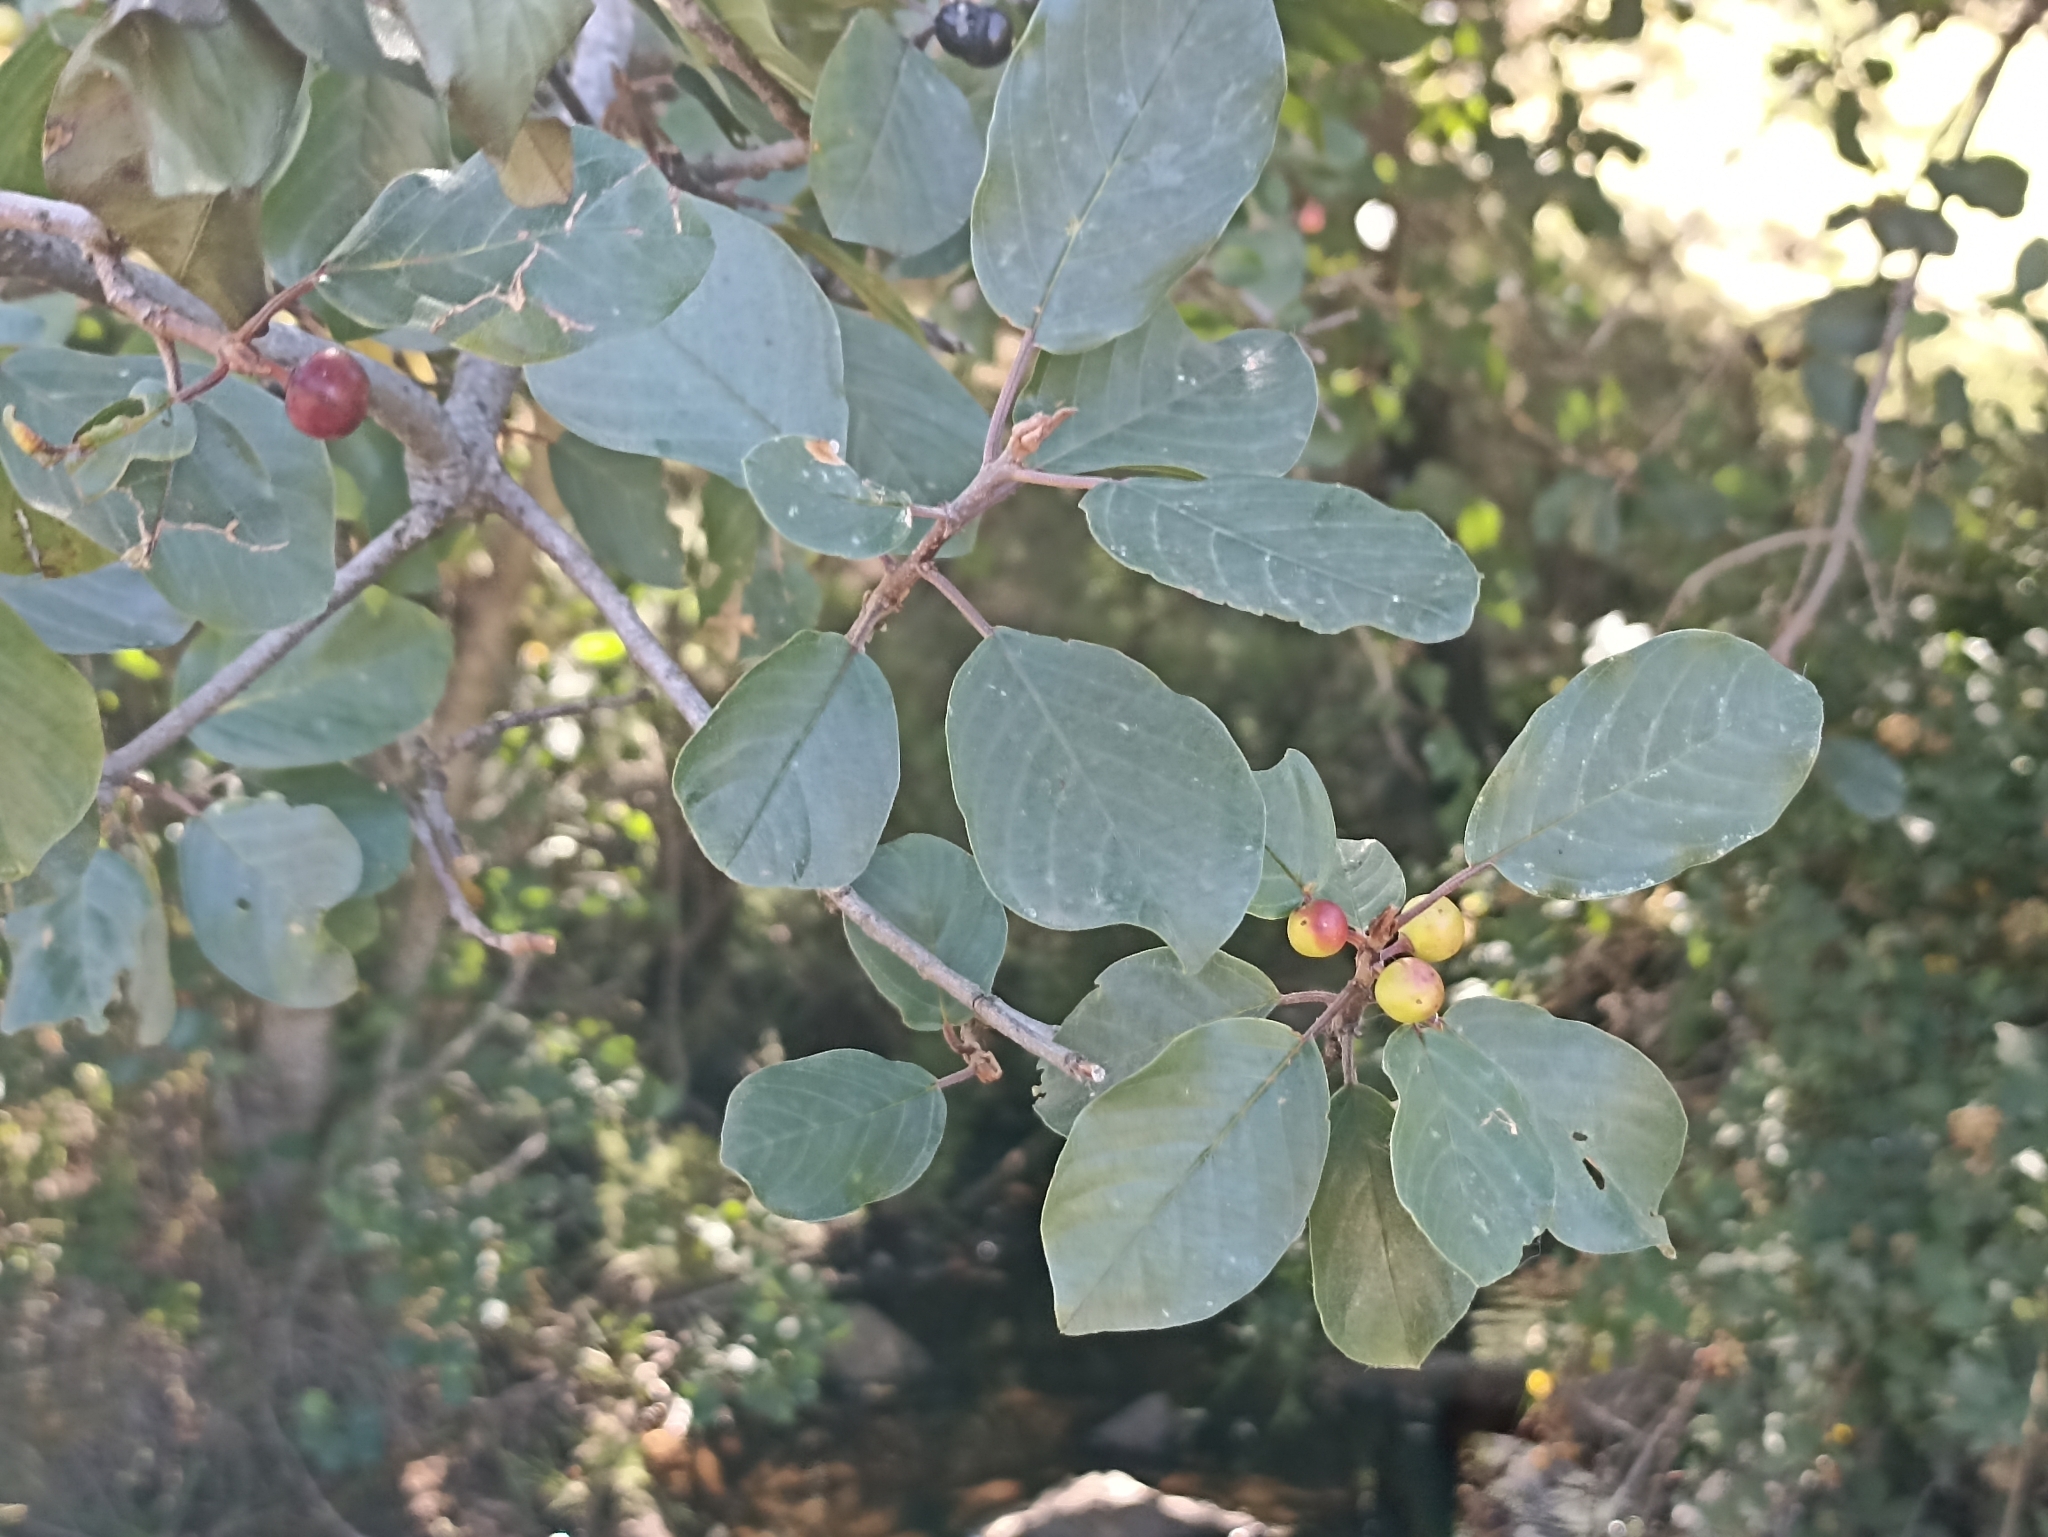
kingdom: Plantae
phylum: Tracheophyta
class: Magnoliopsida
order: Rosales
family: Rhamnaceae
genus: Frangula
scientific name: Frangula alnus
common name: Alder buckthorn
